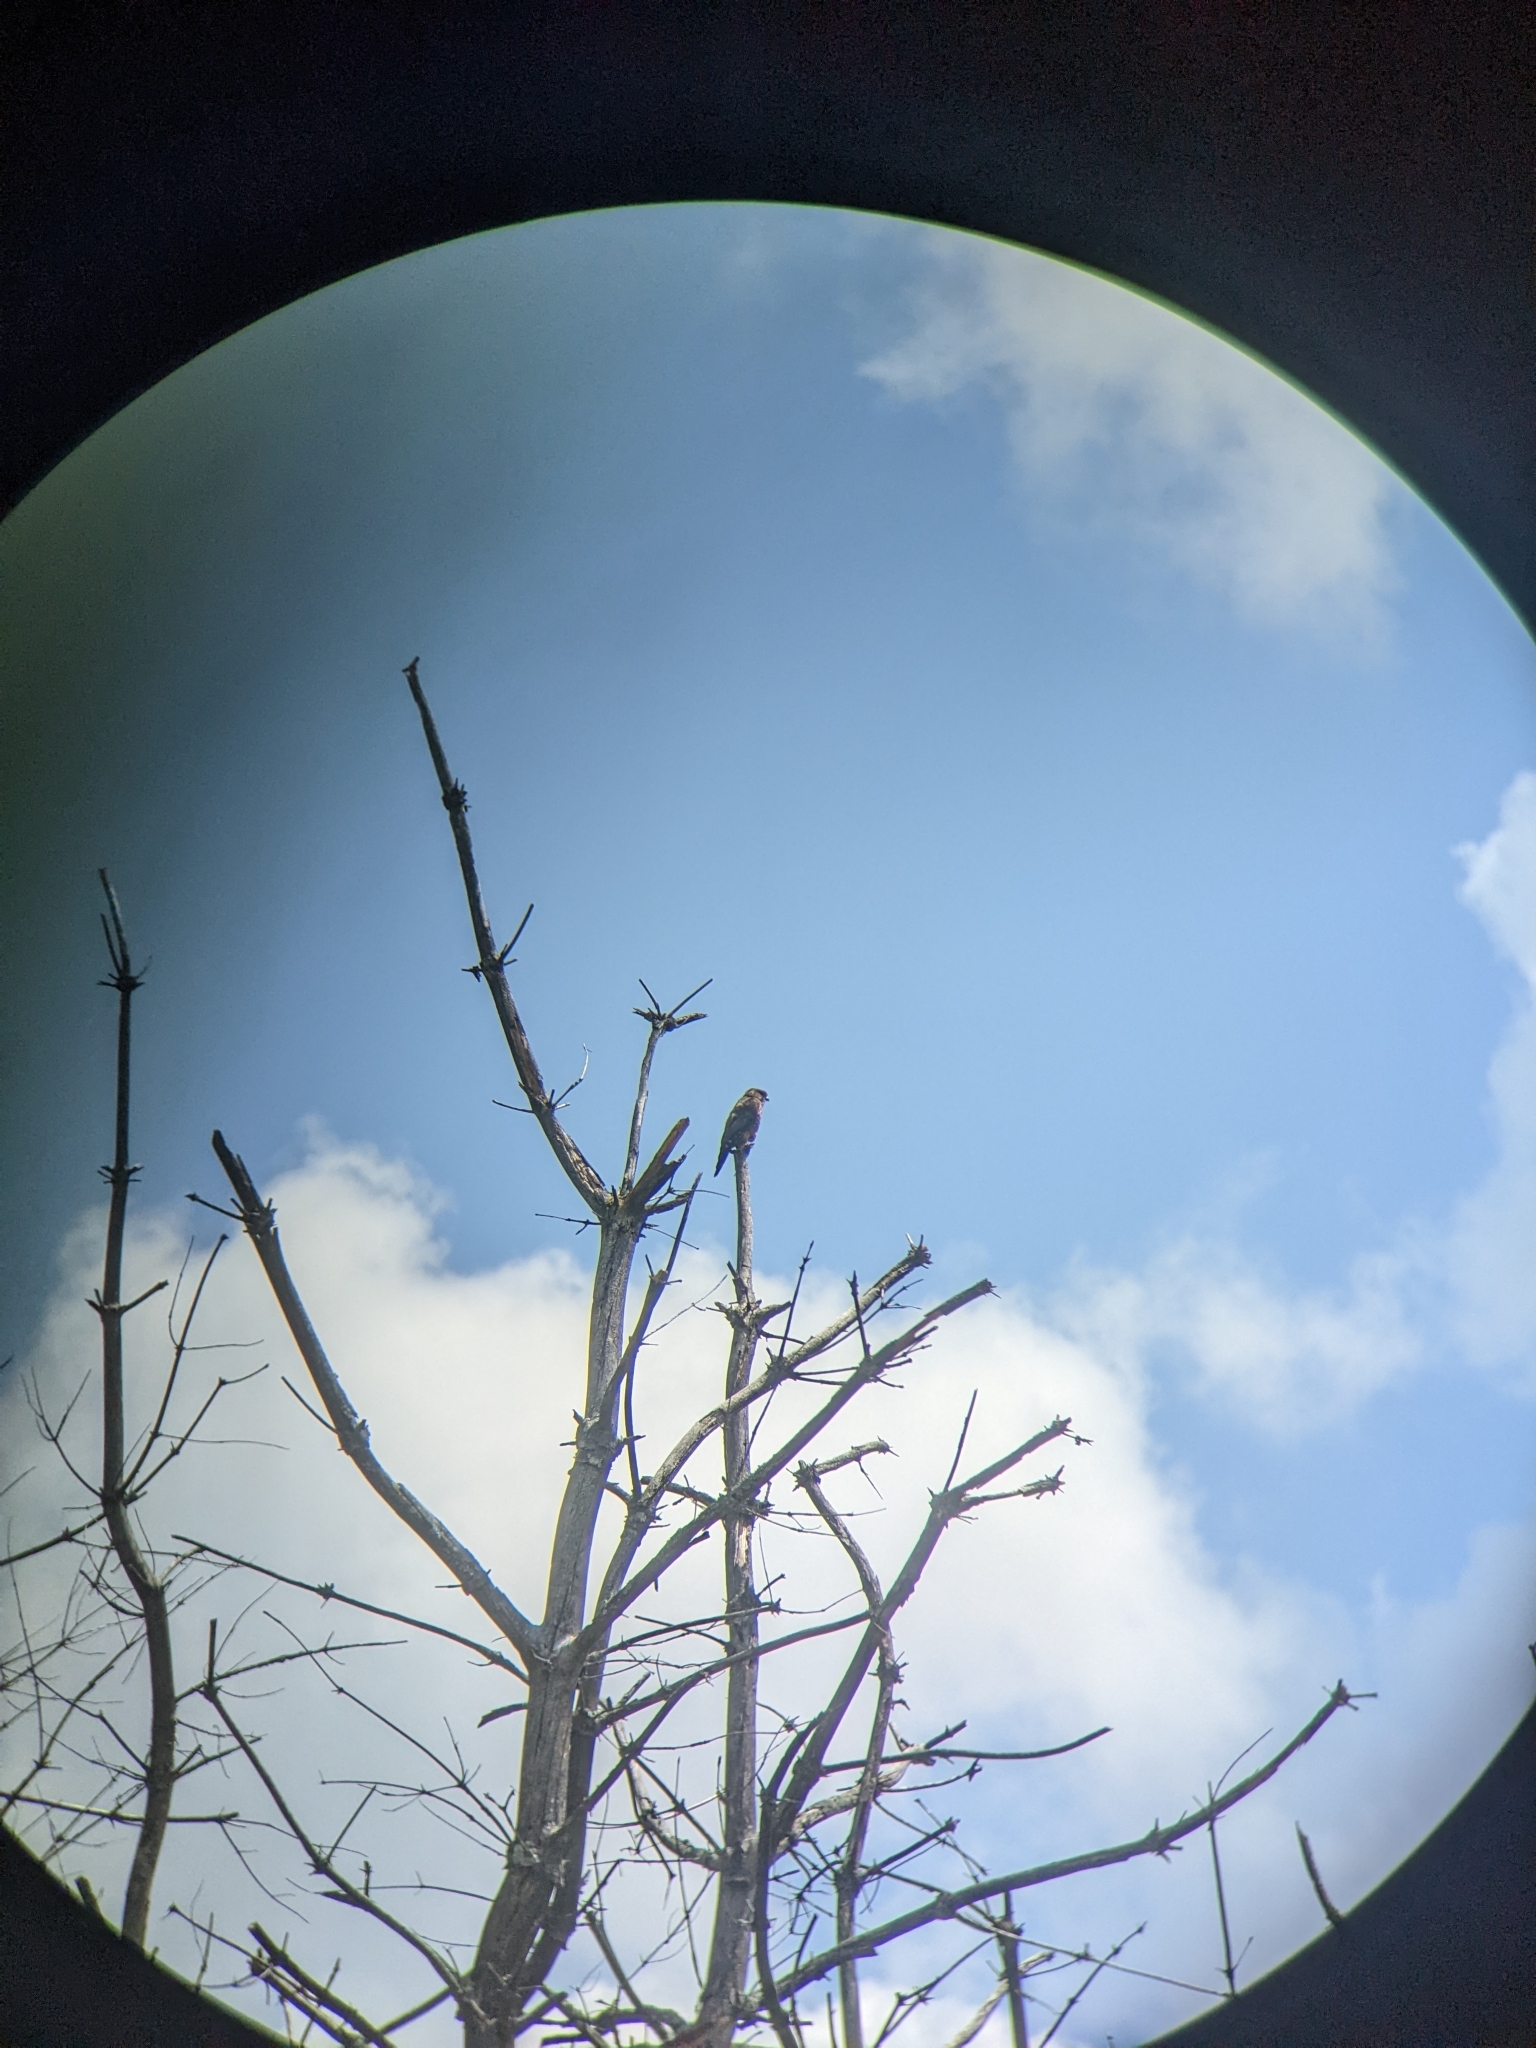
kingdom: Animalia
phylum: Chordata
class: Aves
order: Falconiformes
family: Falconidae
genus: Falco
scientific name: Falco columbarius
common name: Merlin
